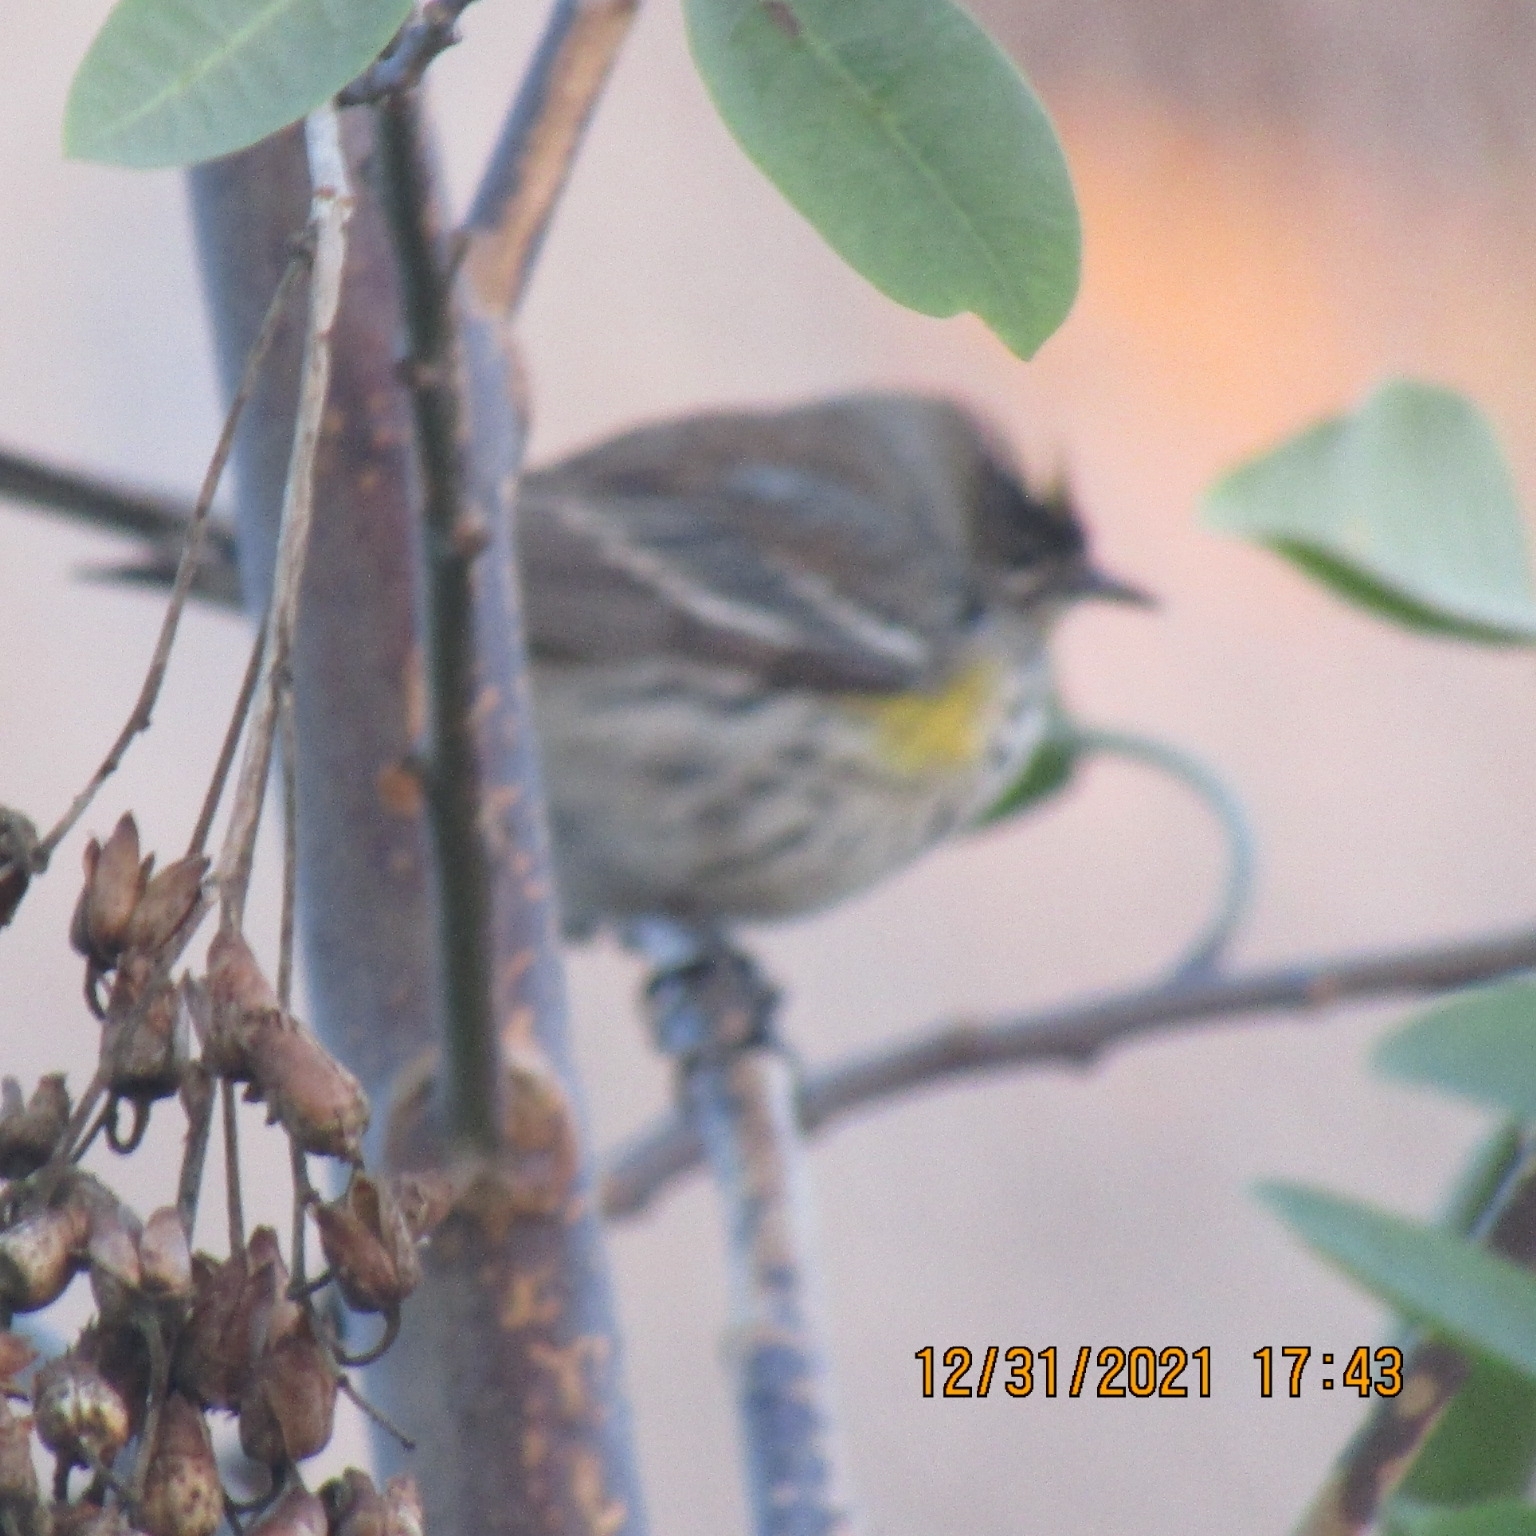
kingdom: Animalia
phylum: Chordata
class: Aves
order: Passeriformes
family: Parulidae
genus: Setophaga
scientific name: Setophaga coronata
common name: Myrtle warbler
